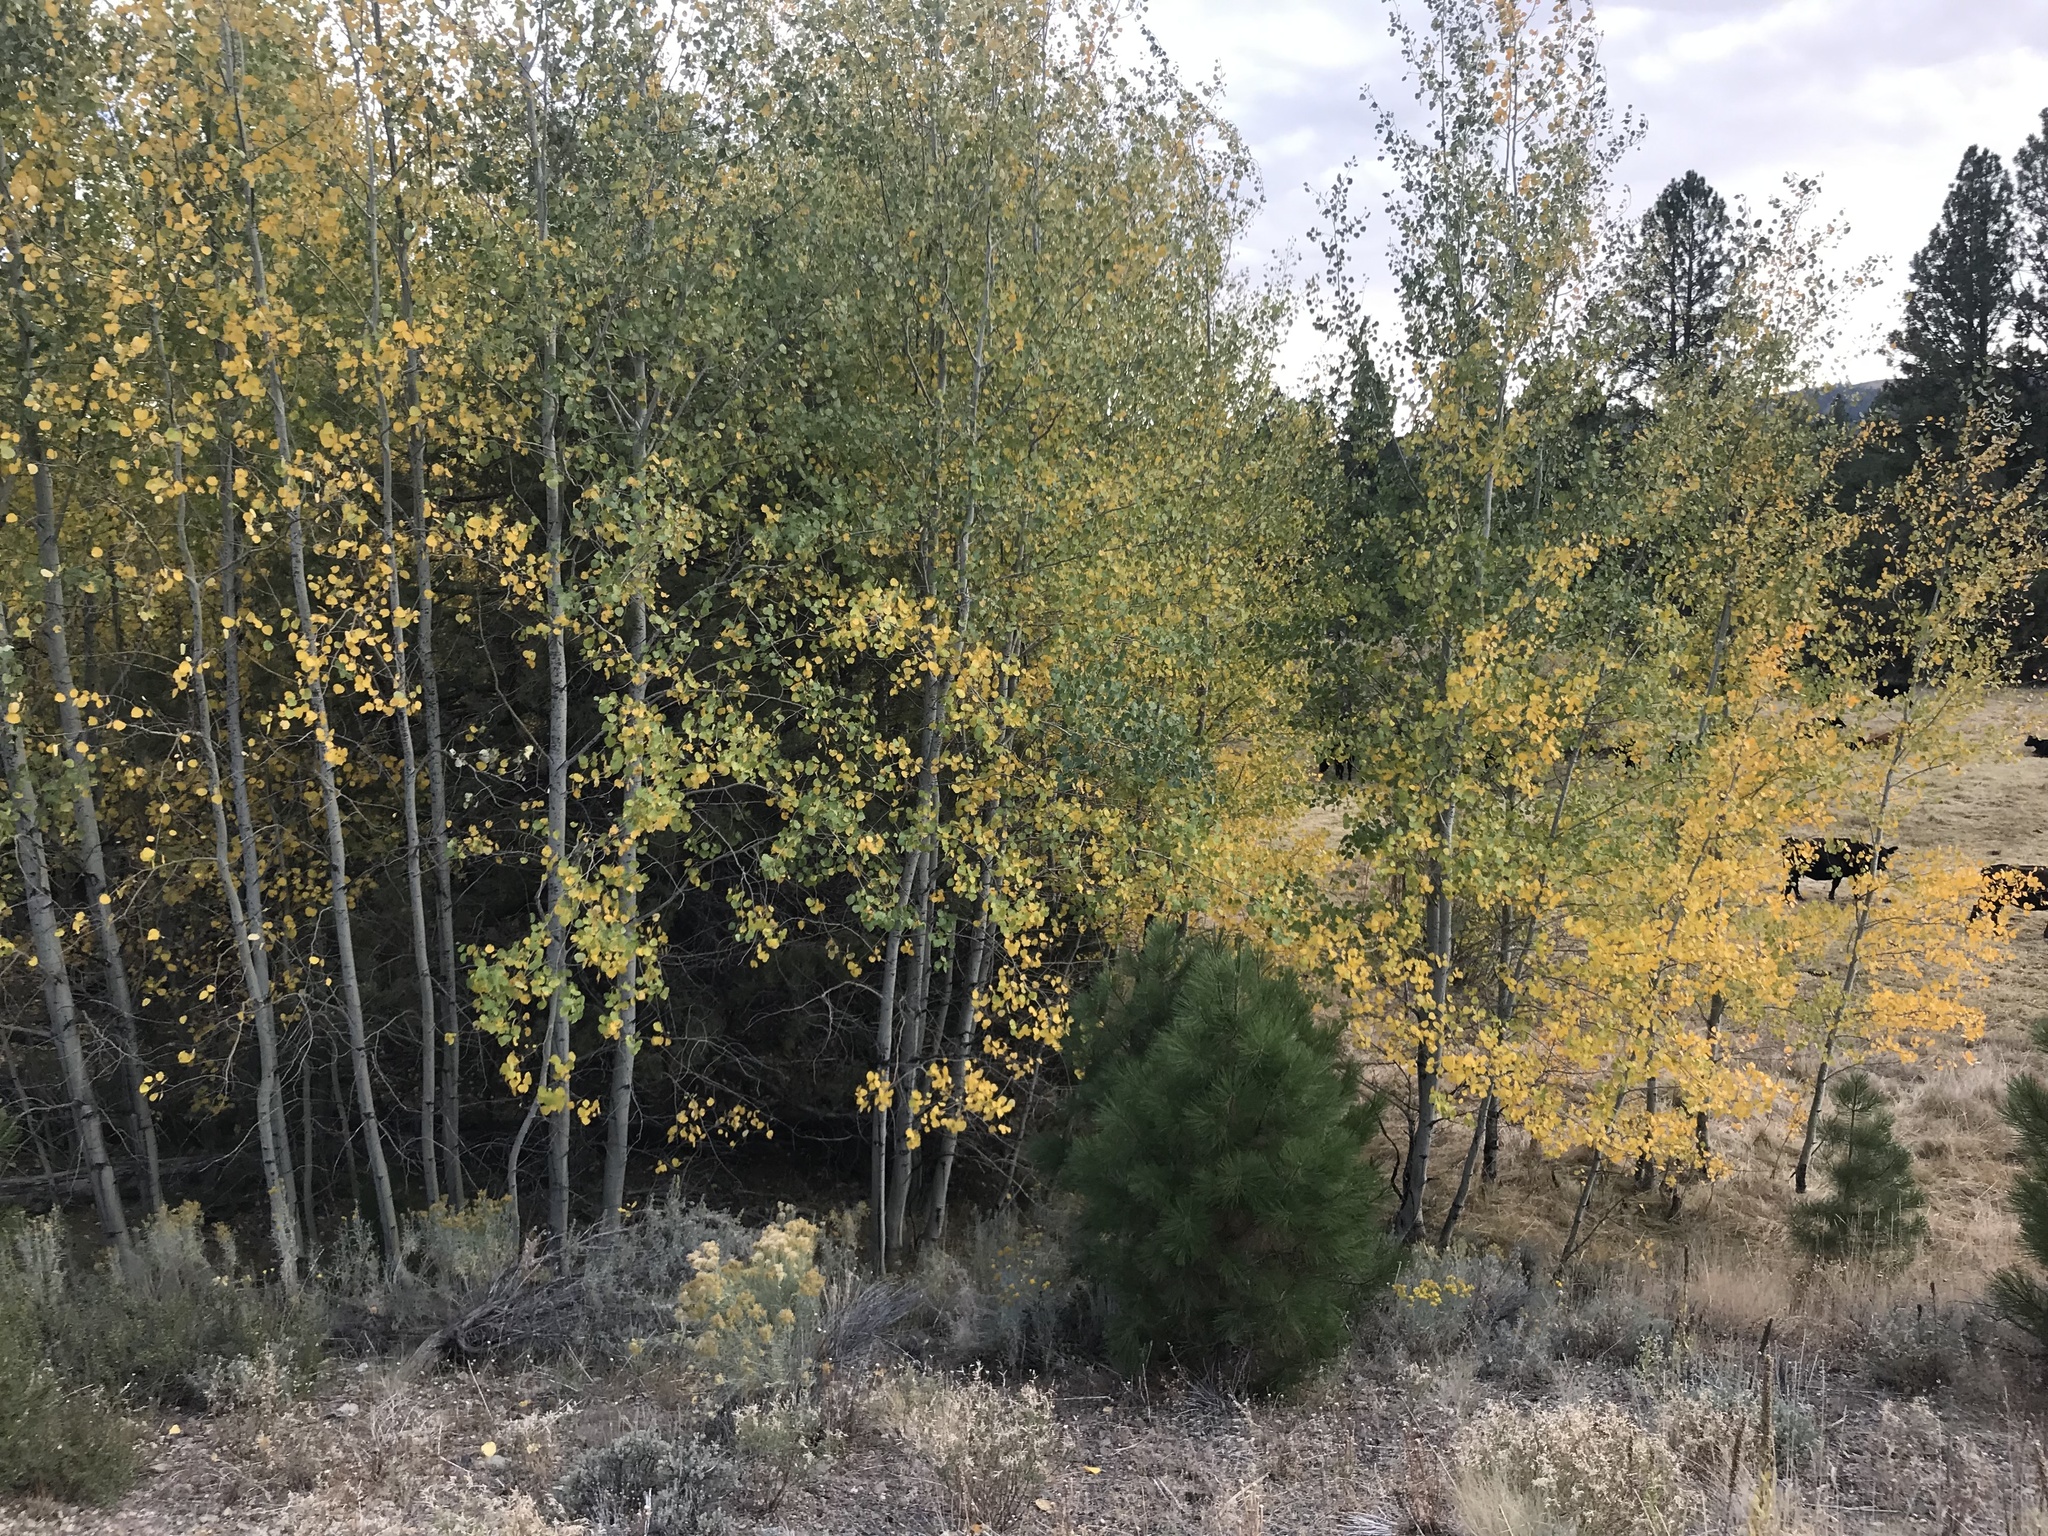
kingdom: Plantae
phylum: Tracheophyta
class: Magnoliopsida
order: Malpighiales
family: Salicaceae
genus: Populus
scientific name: Populus tremuloides
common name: Quaking aspen
